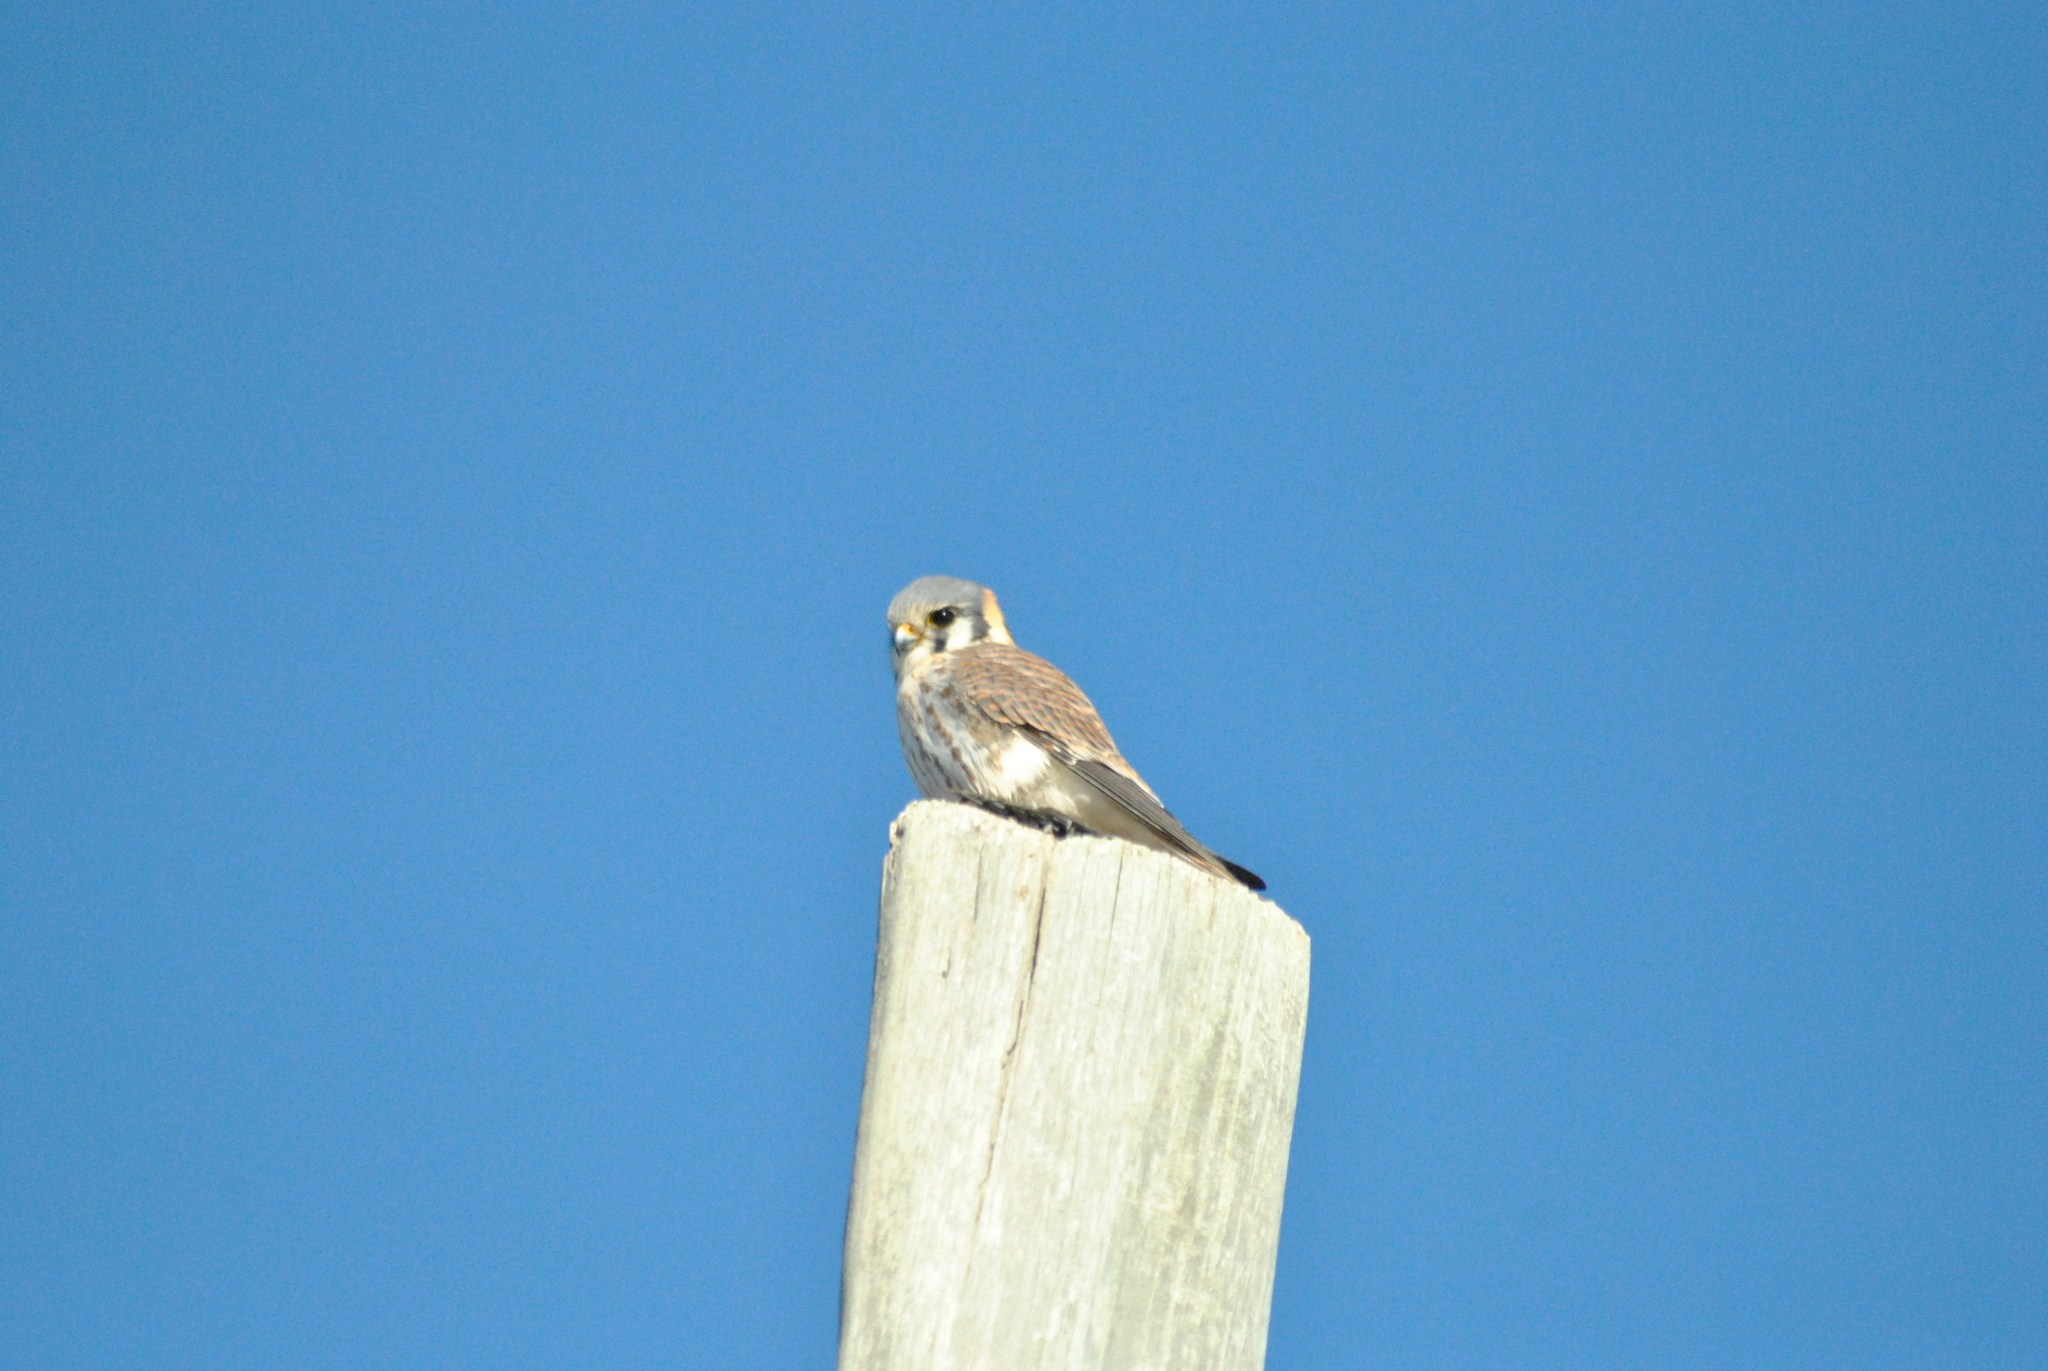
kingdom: Animalia
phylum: Chordata
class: Aves
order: Falconiformes
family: Falconidae
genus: Falco
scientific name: Falco sparverius
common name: American kestrel
